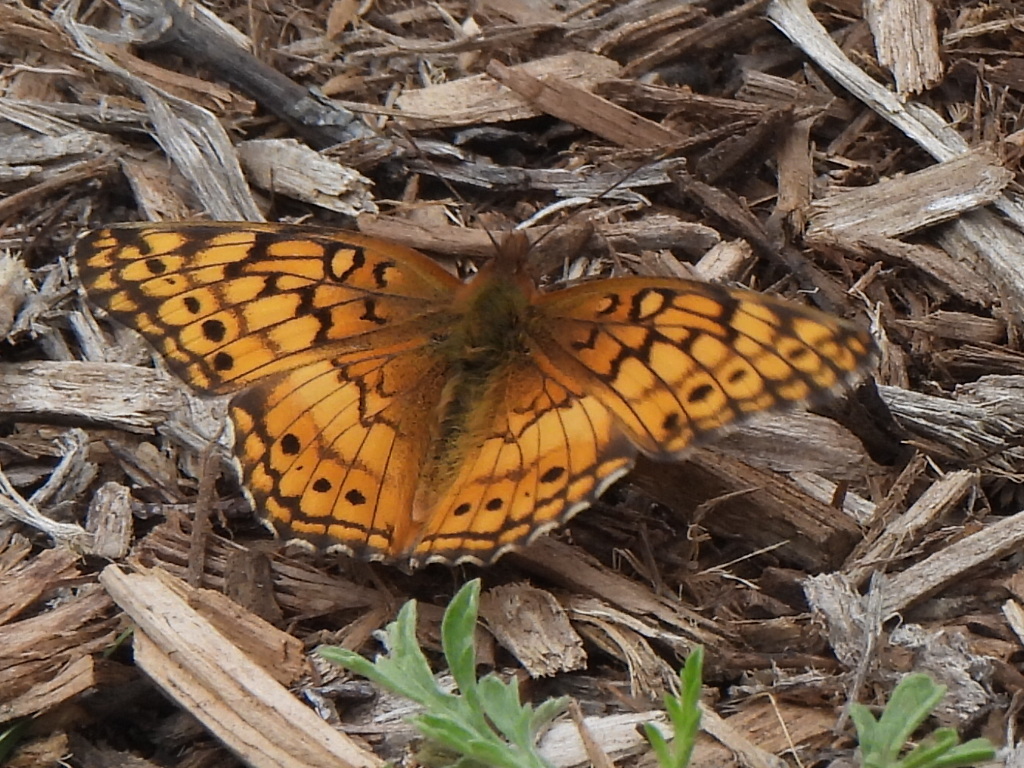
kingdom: Animalia
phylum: Arthropoda
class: Insecta
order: Lepidoptera
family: Nymphalidae
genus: Euptoieta
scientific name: Euptoieta claudia
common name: Variegated fritillary
